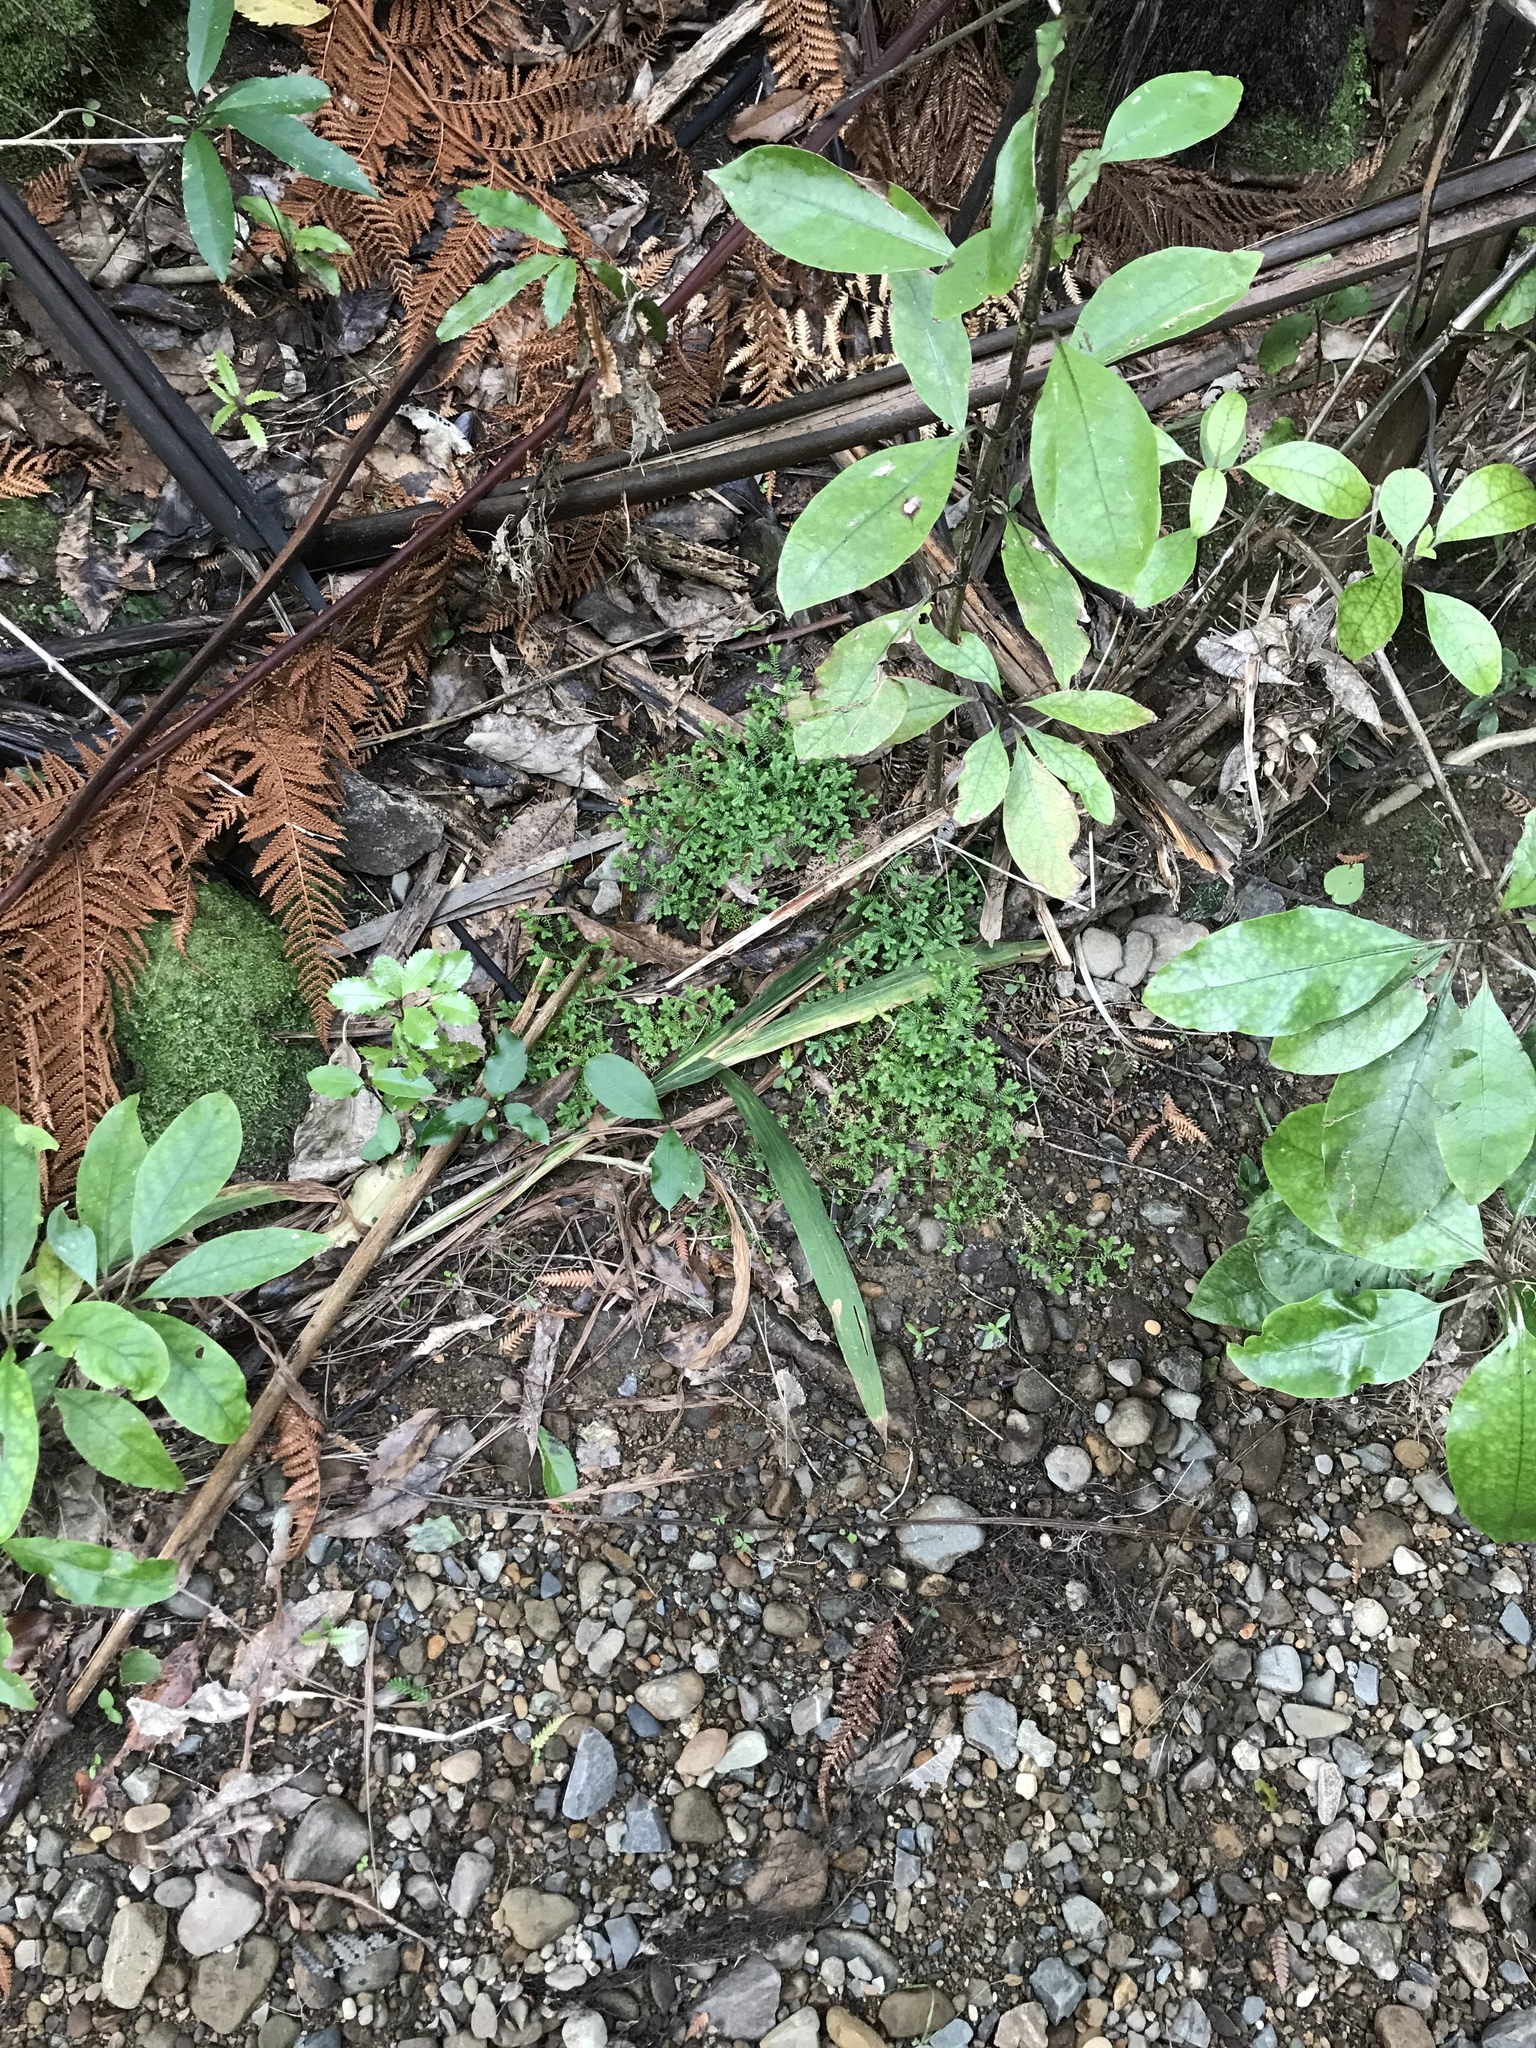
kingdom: Plantae
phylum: Tracheophyta
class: Lycopodiopsida
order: Selaginellales
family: Selaginellaceae
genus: Selaginella
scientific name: Selaginella kraussiana
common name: Krauss' spikemoss
